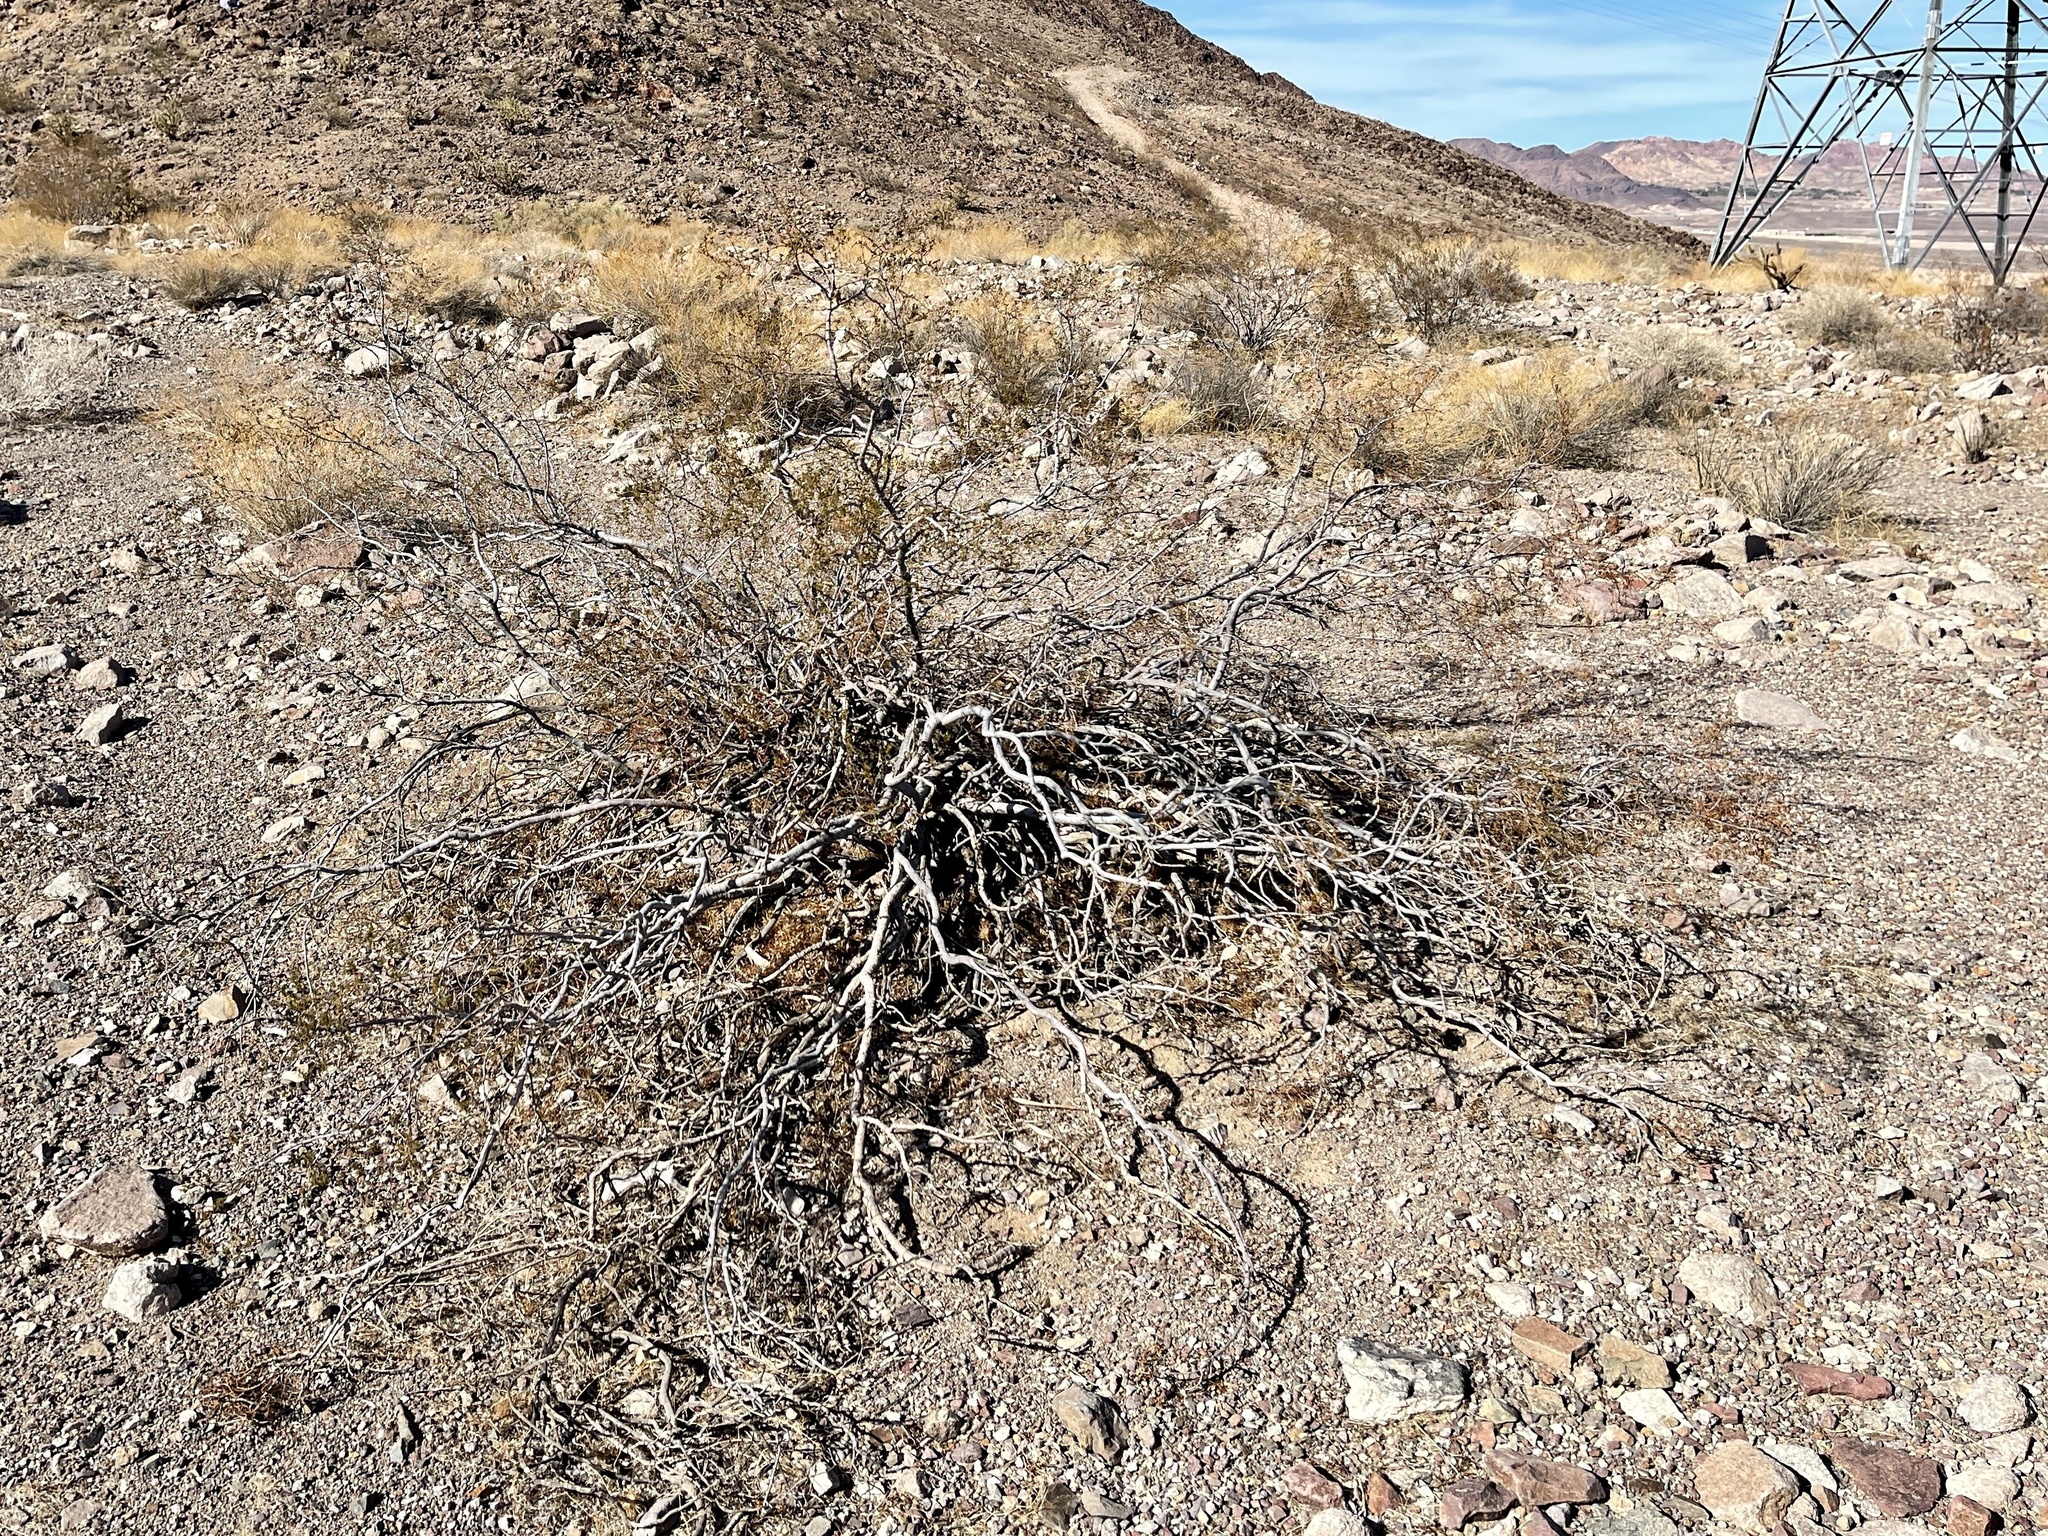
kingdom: Plantae
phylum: Tracheophyta
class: Magnoliopsida
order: Zygophyllales
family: Zygophyllaceae
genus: Larrea
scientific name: Larrea tridentata
